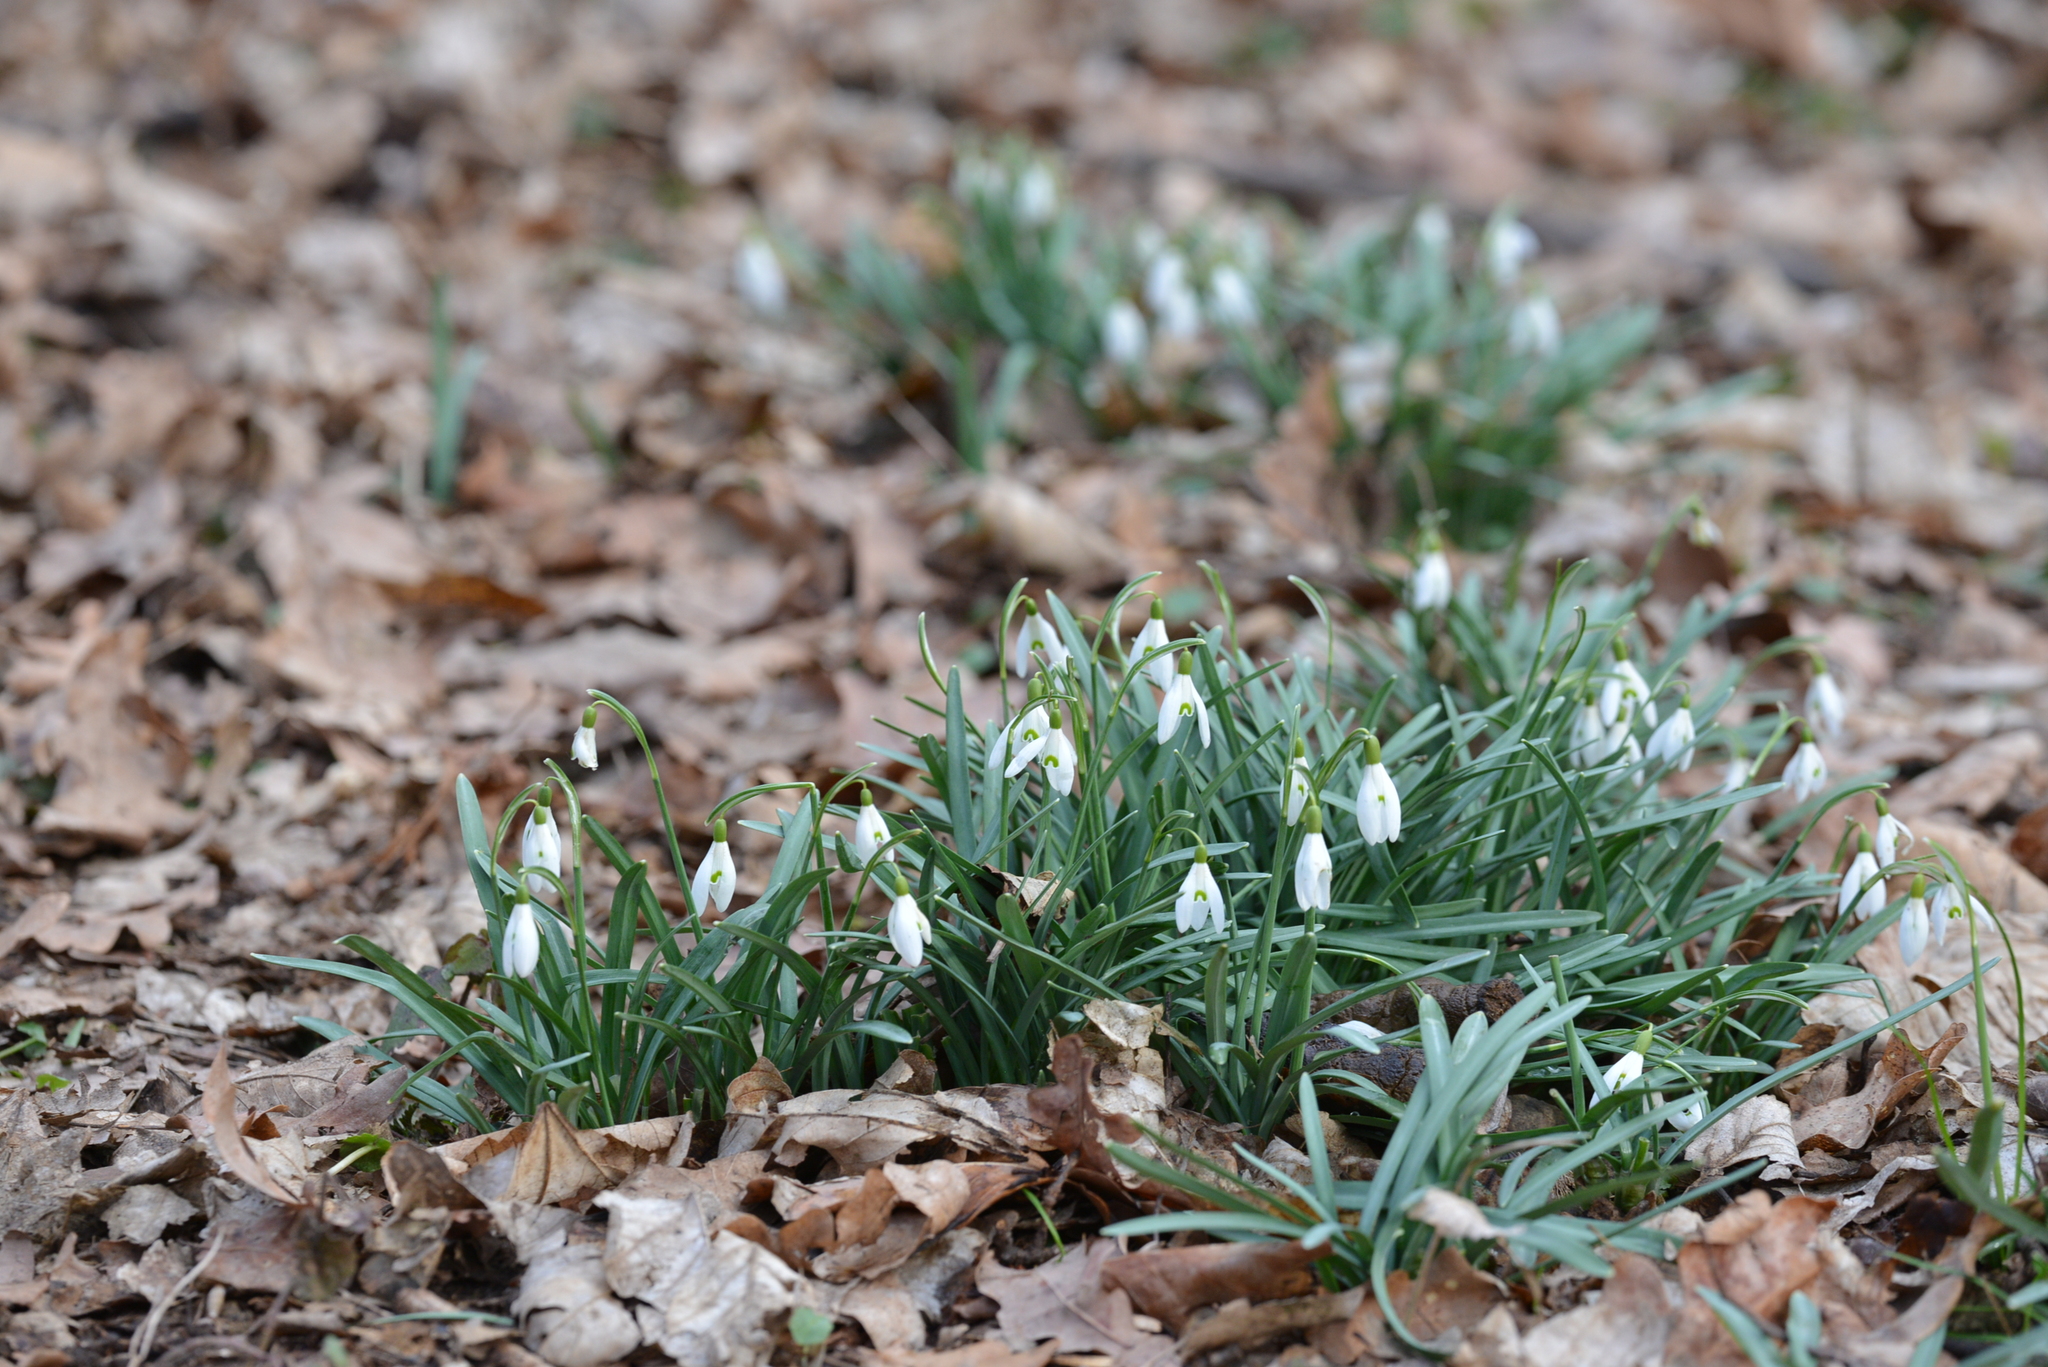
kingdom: Plantae
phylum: Tracheophyta
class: Liliopsida
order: Asparagales
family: Amaryllidaceae
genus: Galanthus
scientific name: Galanthus nivalis
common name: Snowdrop
